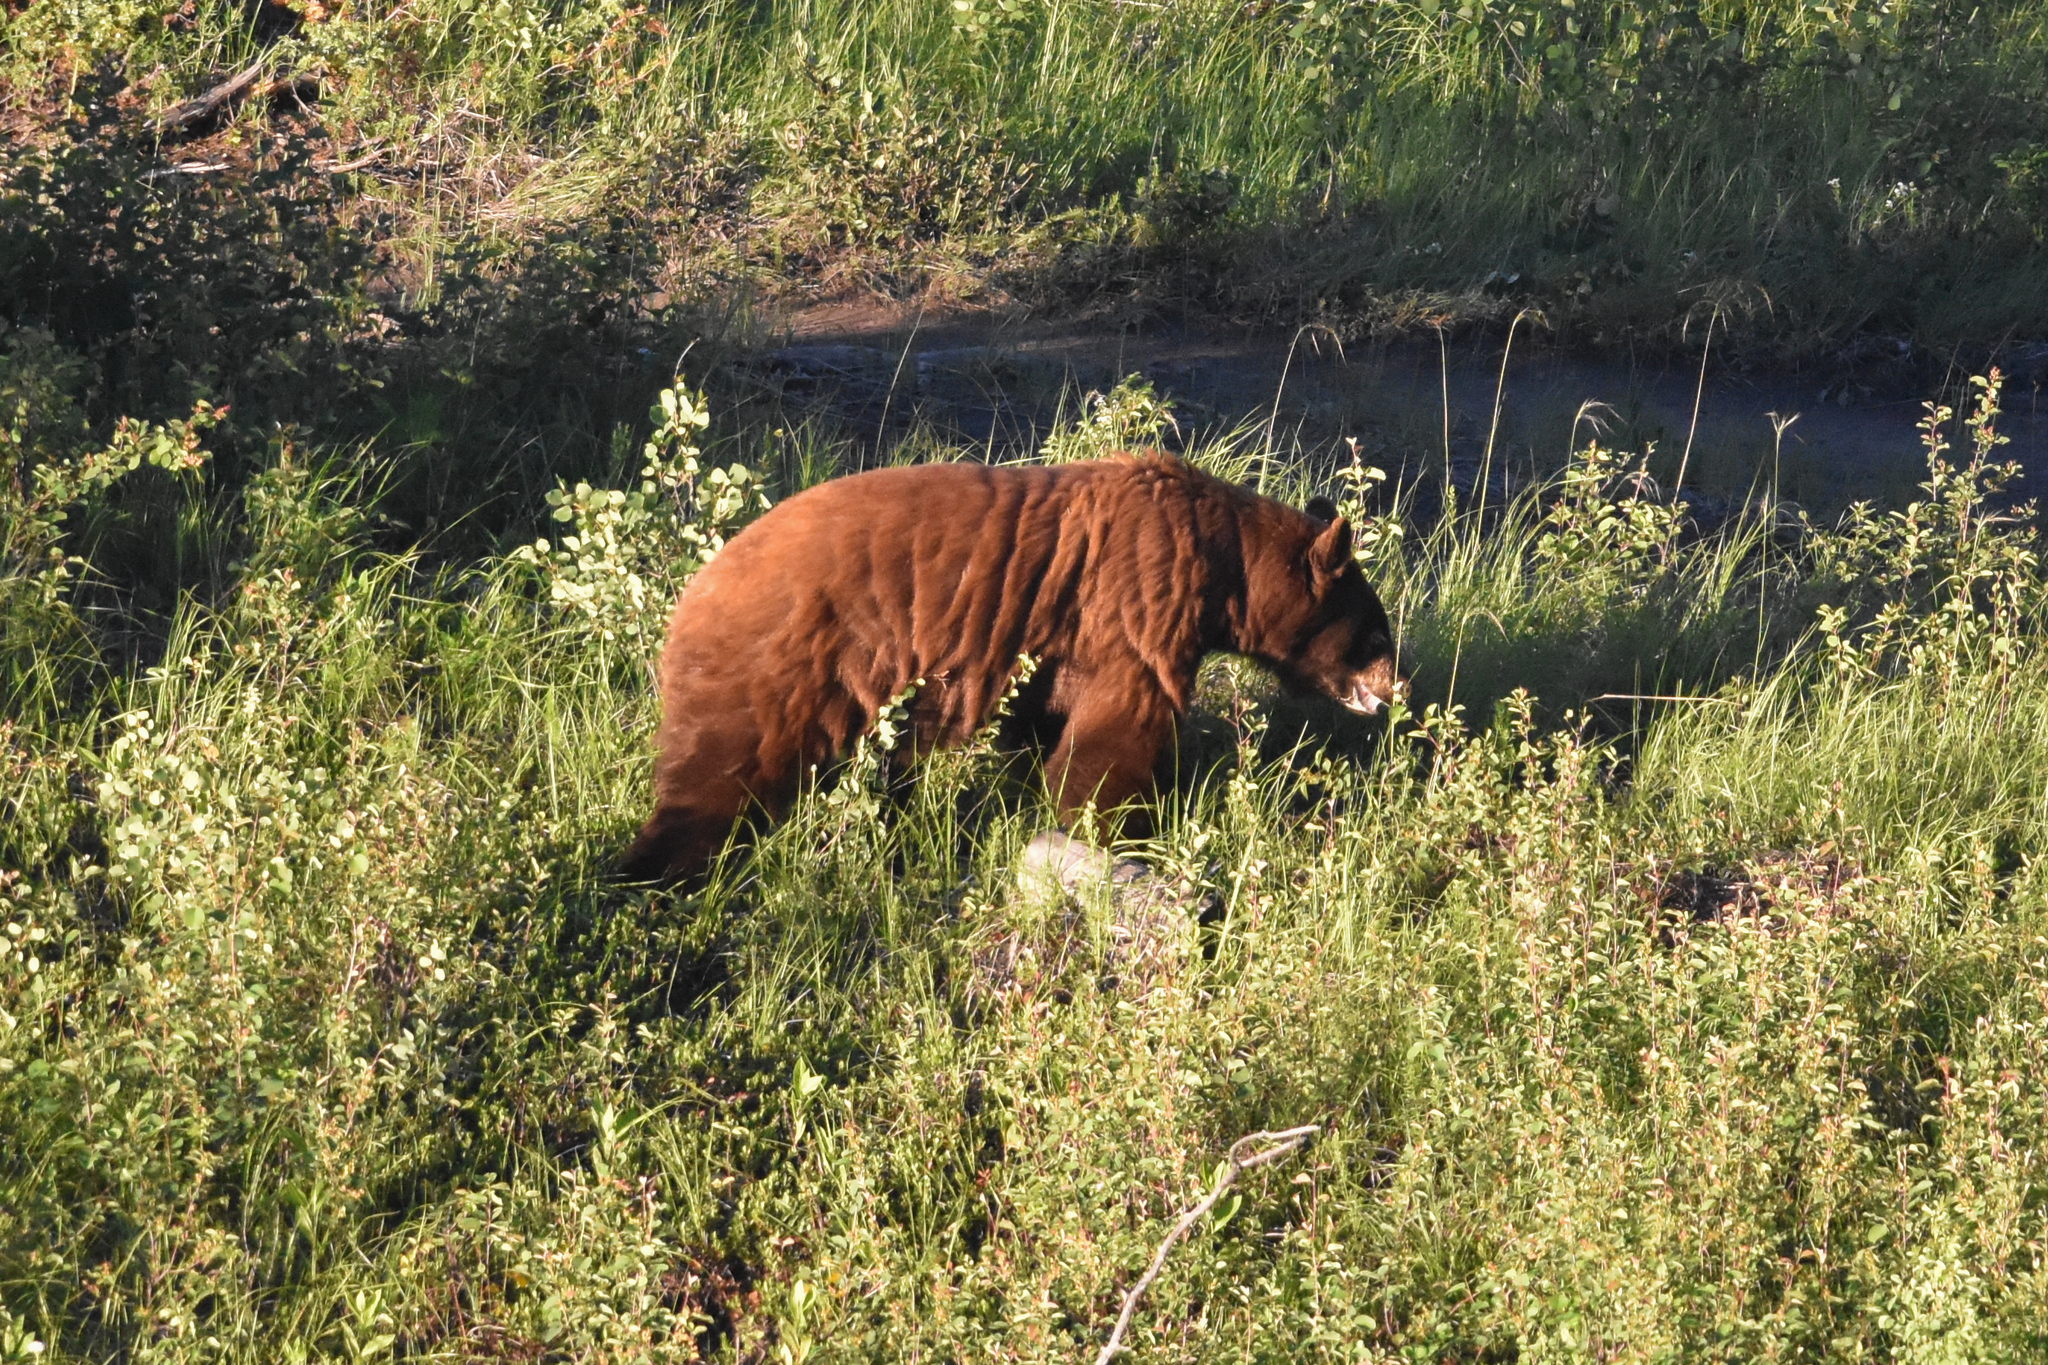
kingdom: Animalia
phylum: Chordata
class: Mammalia
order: Carnivora
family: Ursidae
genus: Ursus
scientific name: Ursus americanus
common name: American black bear
